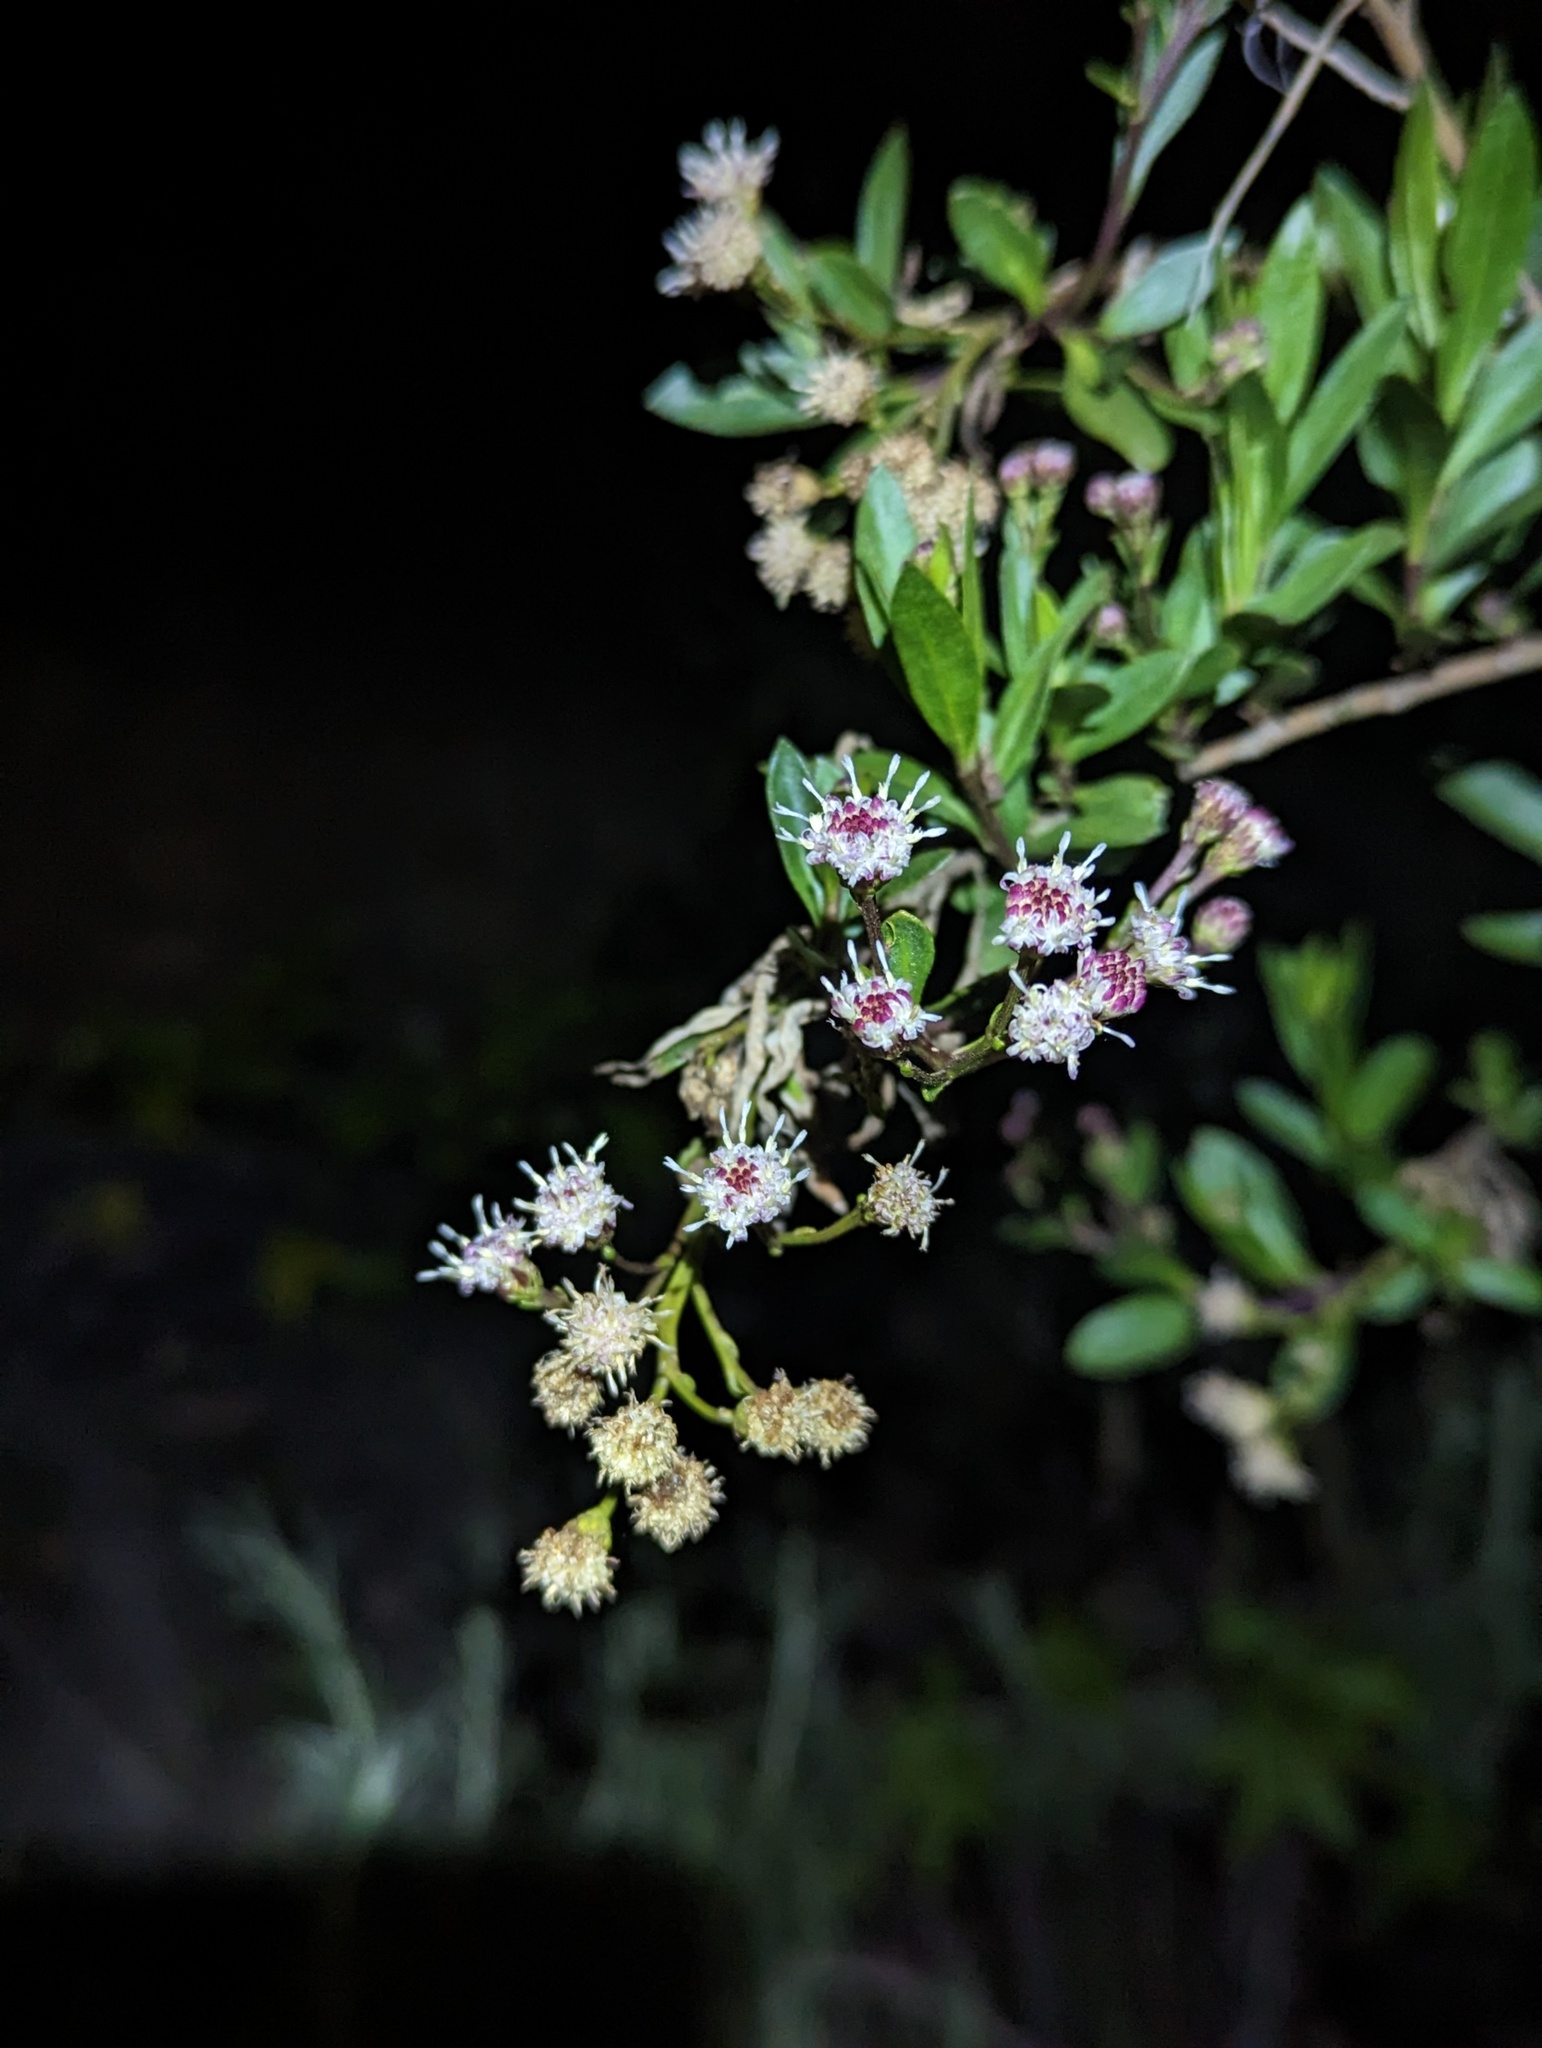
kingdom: Plantae
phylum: Tracheophyta
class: Magnoliopsida
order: Asterales
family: Asteraceae
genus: Baccharis
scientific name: Baccharis salicifolia
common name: Sticky baccharis
